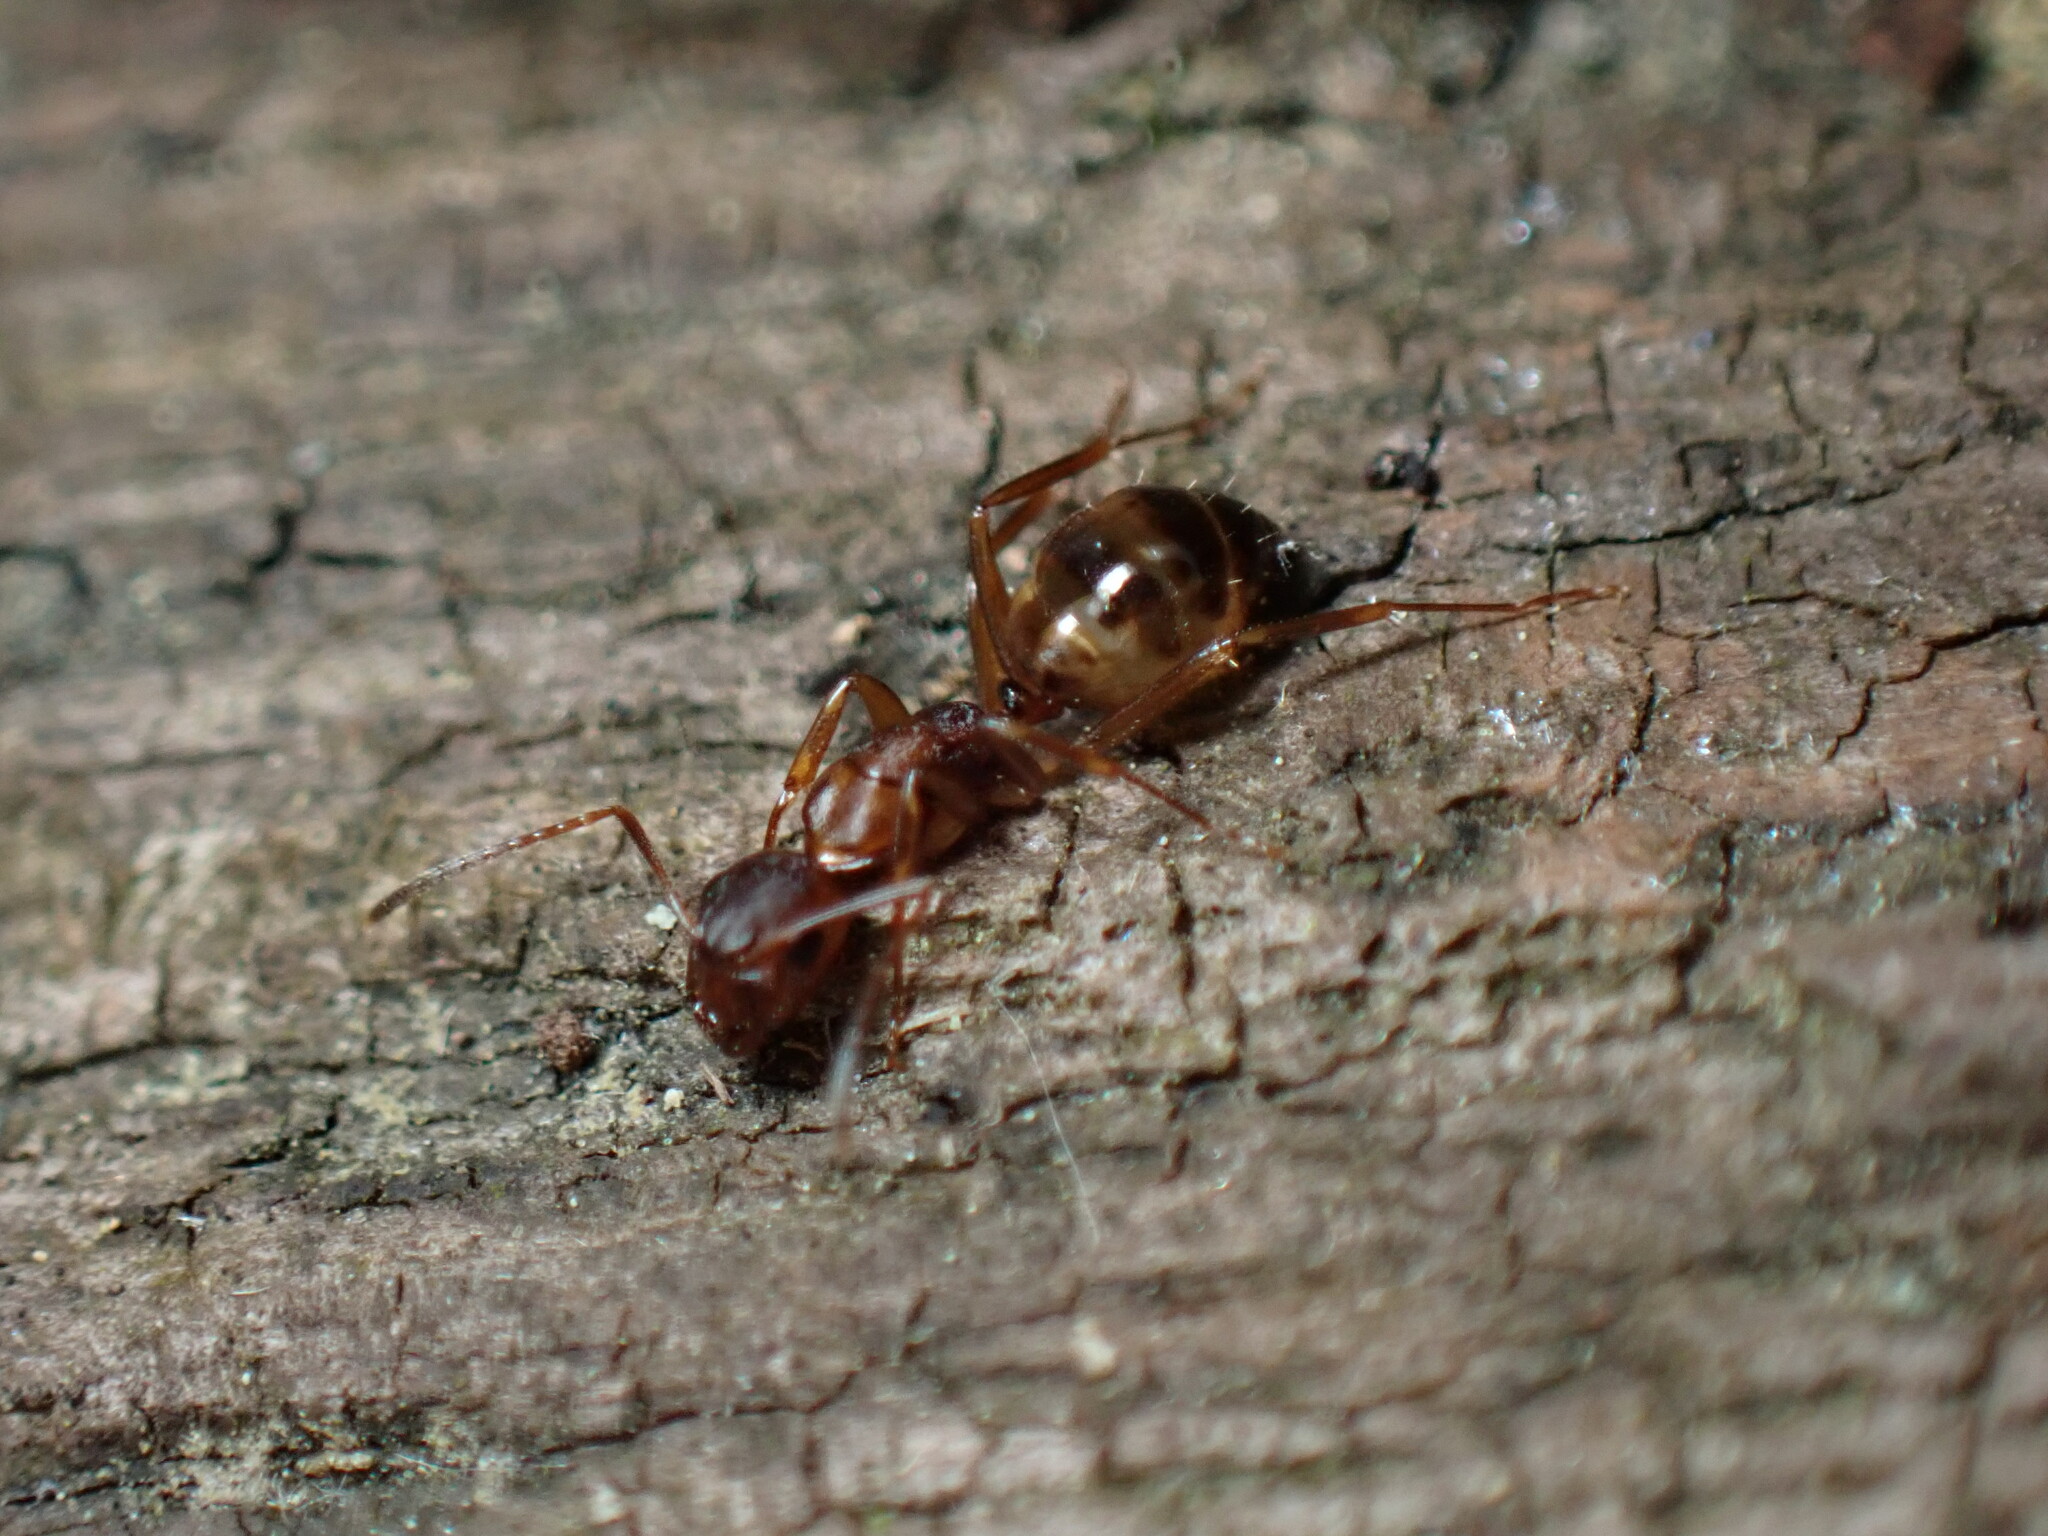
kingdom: Animalia
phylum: Arthropoda
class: Insecta
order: Hymenoptera
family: Formicidae
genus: Camponotus
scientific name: Camponotus subbarbatus
